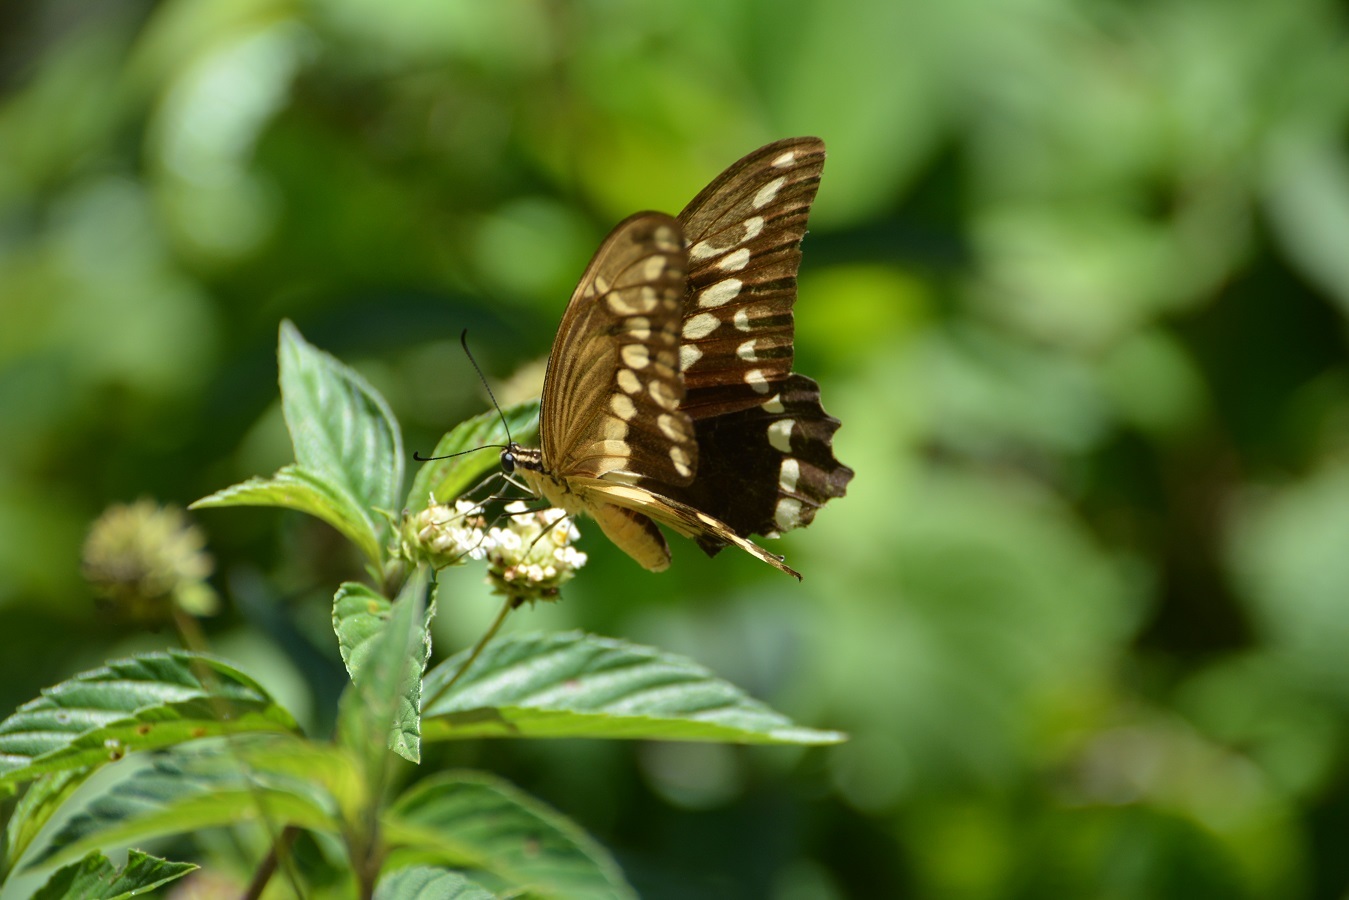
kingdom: Animalia
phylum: Arthropoda
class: Insecta
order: Lepidoptera
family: Papilionidae
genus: Papilio
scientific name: Papilio rumiko
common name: Western giant swallowtail
